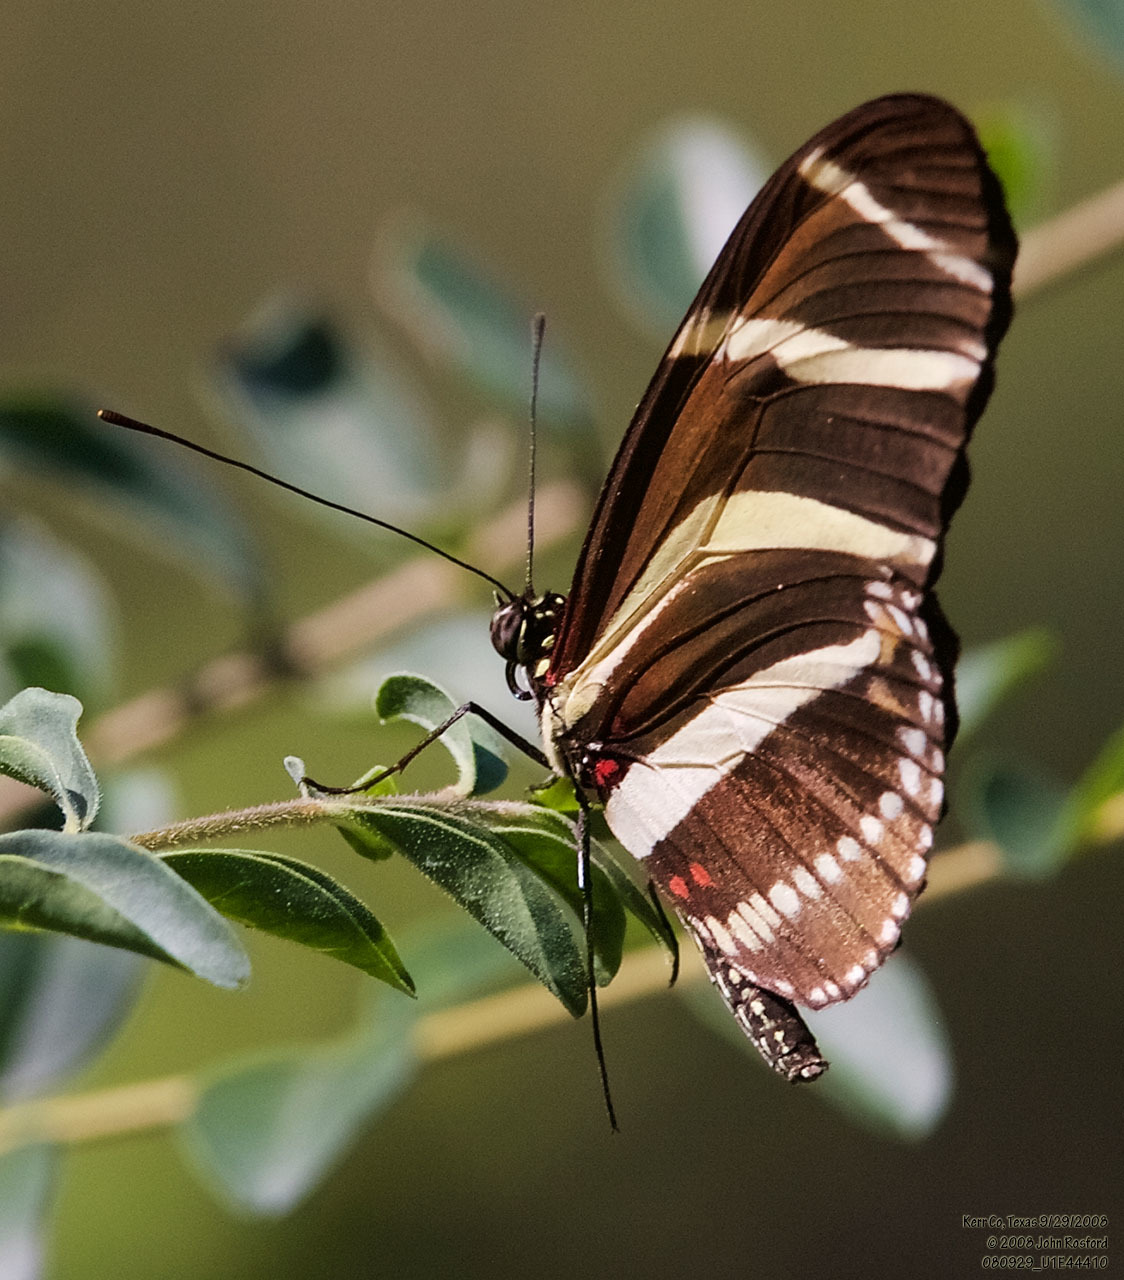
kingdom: Animalia
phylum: Arthropoda
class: Insecta
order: Lepidoptera
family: Nymphalidae
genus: Heliconius
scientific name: Heliconius charithonia
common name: Zebra long wing
